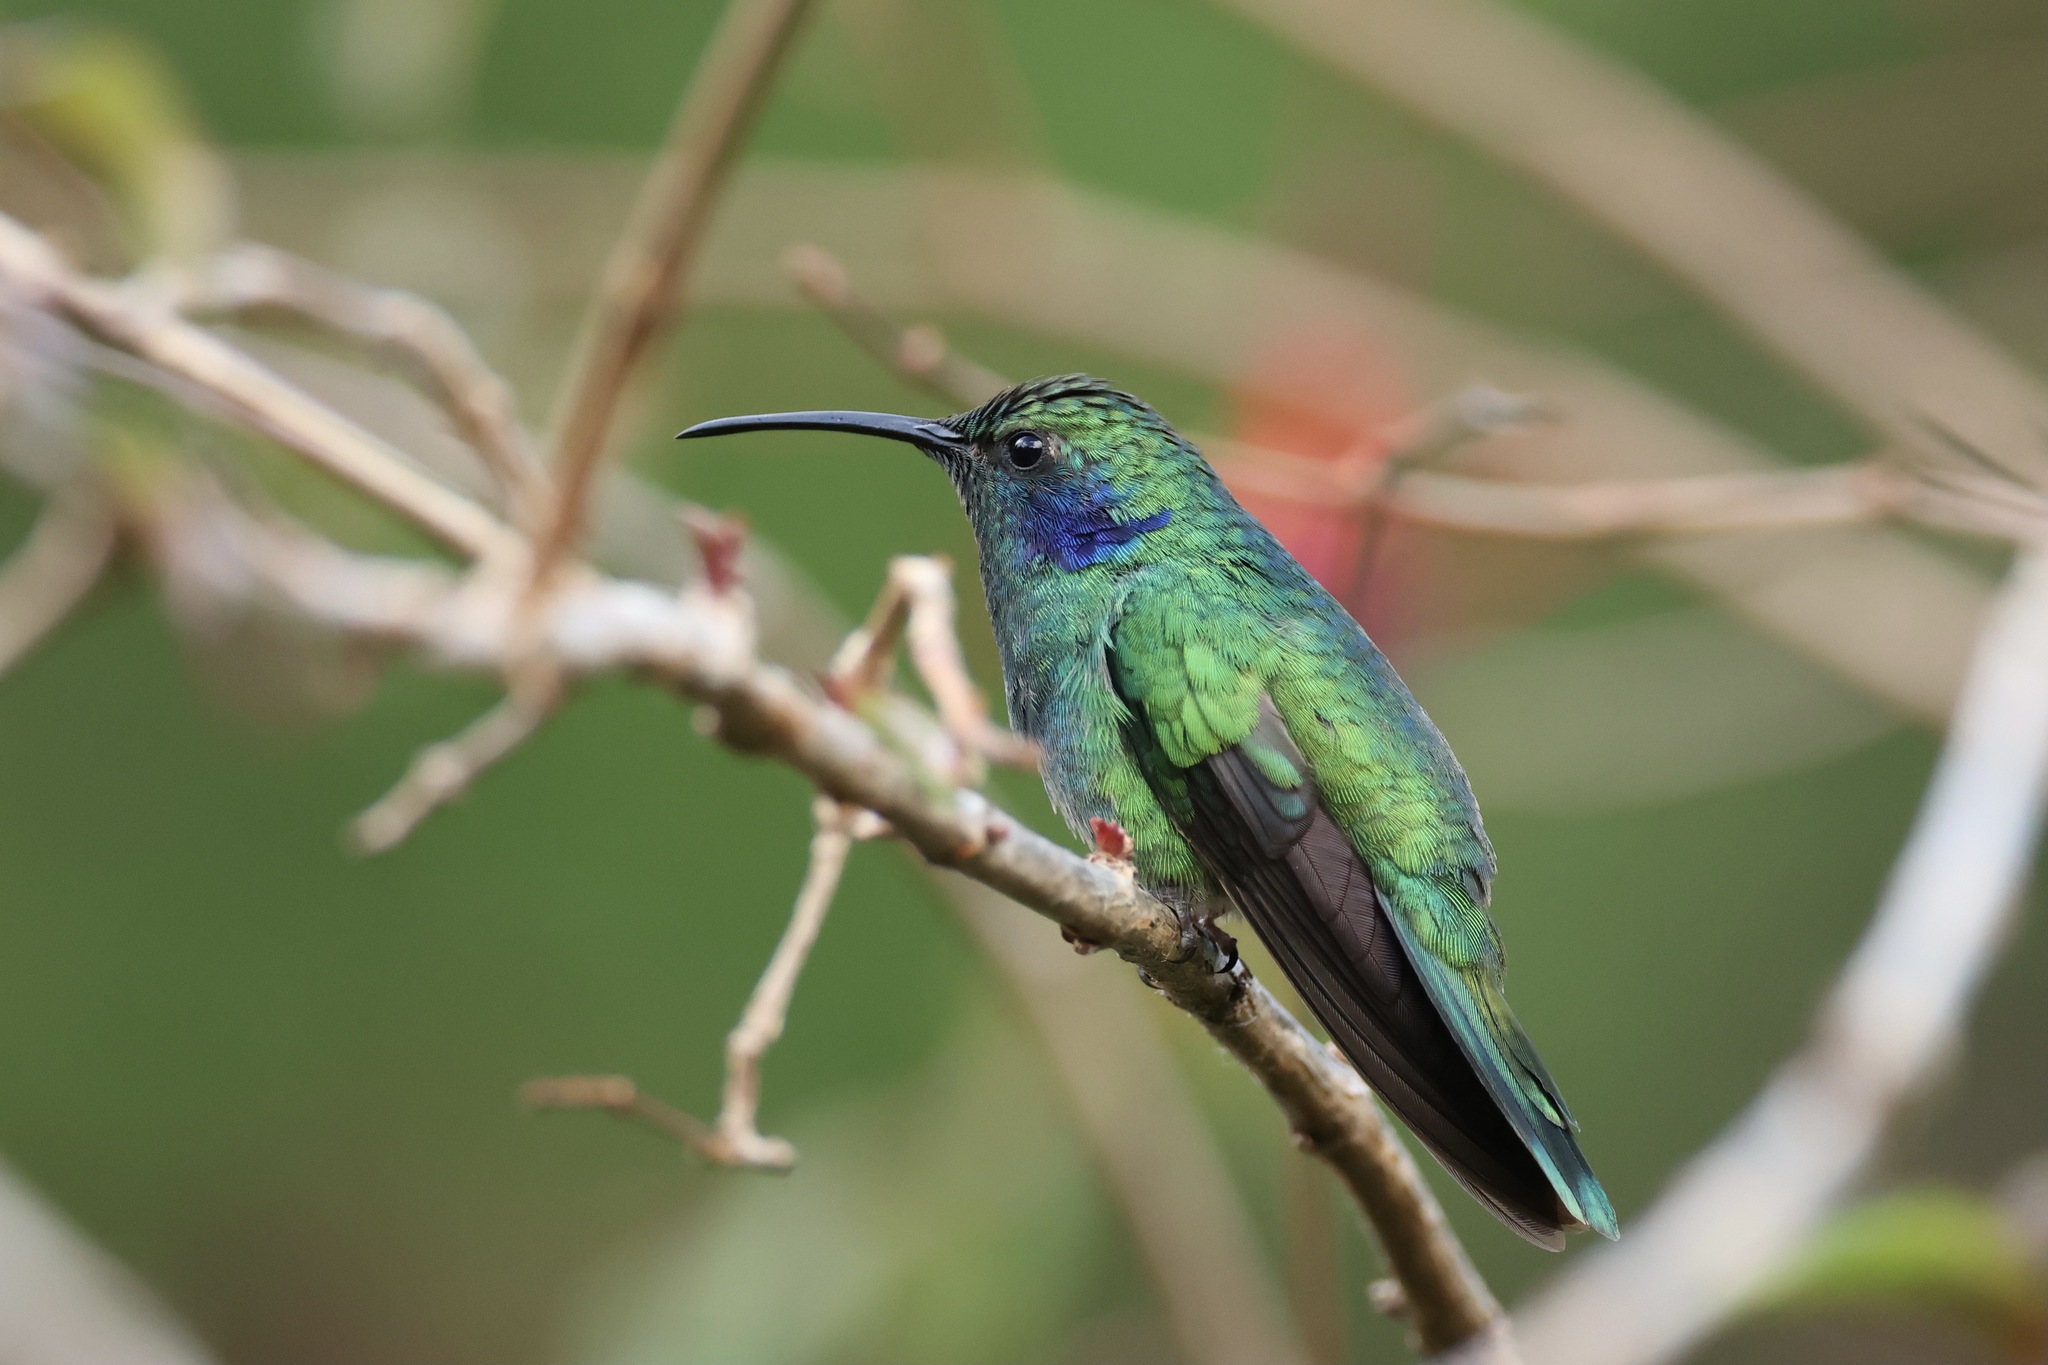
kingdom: Animalia
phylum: Chordata
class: Aves
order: Apodiformes
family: Trochilidae
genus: Colibri
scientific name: Colibri cyanotus
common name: Lesser violetear
